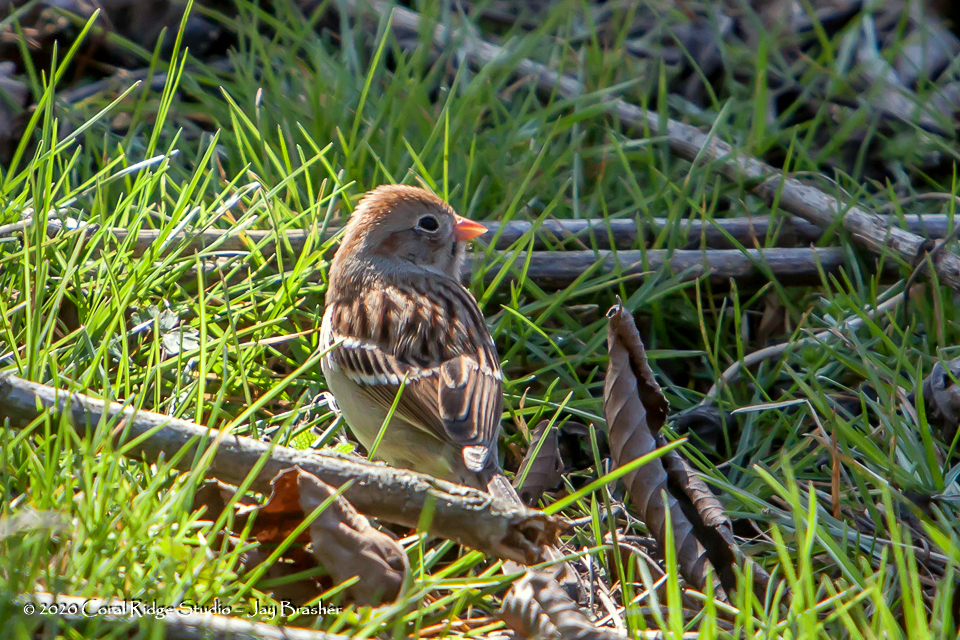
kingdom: Animalia
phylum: Chordata
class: Aves
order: Passeriformes
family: Passerellidae
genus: Spizella
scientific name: Spizella pusilla
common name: Field sparrow
